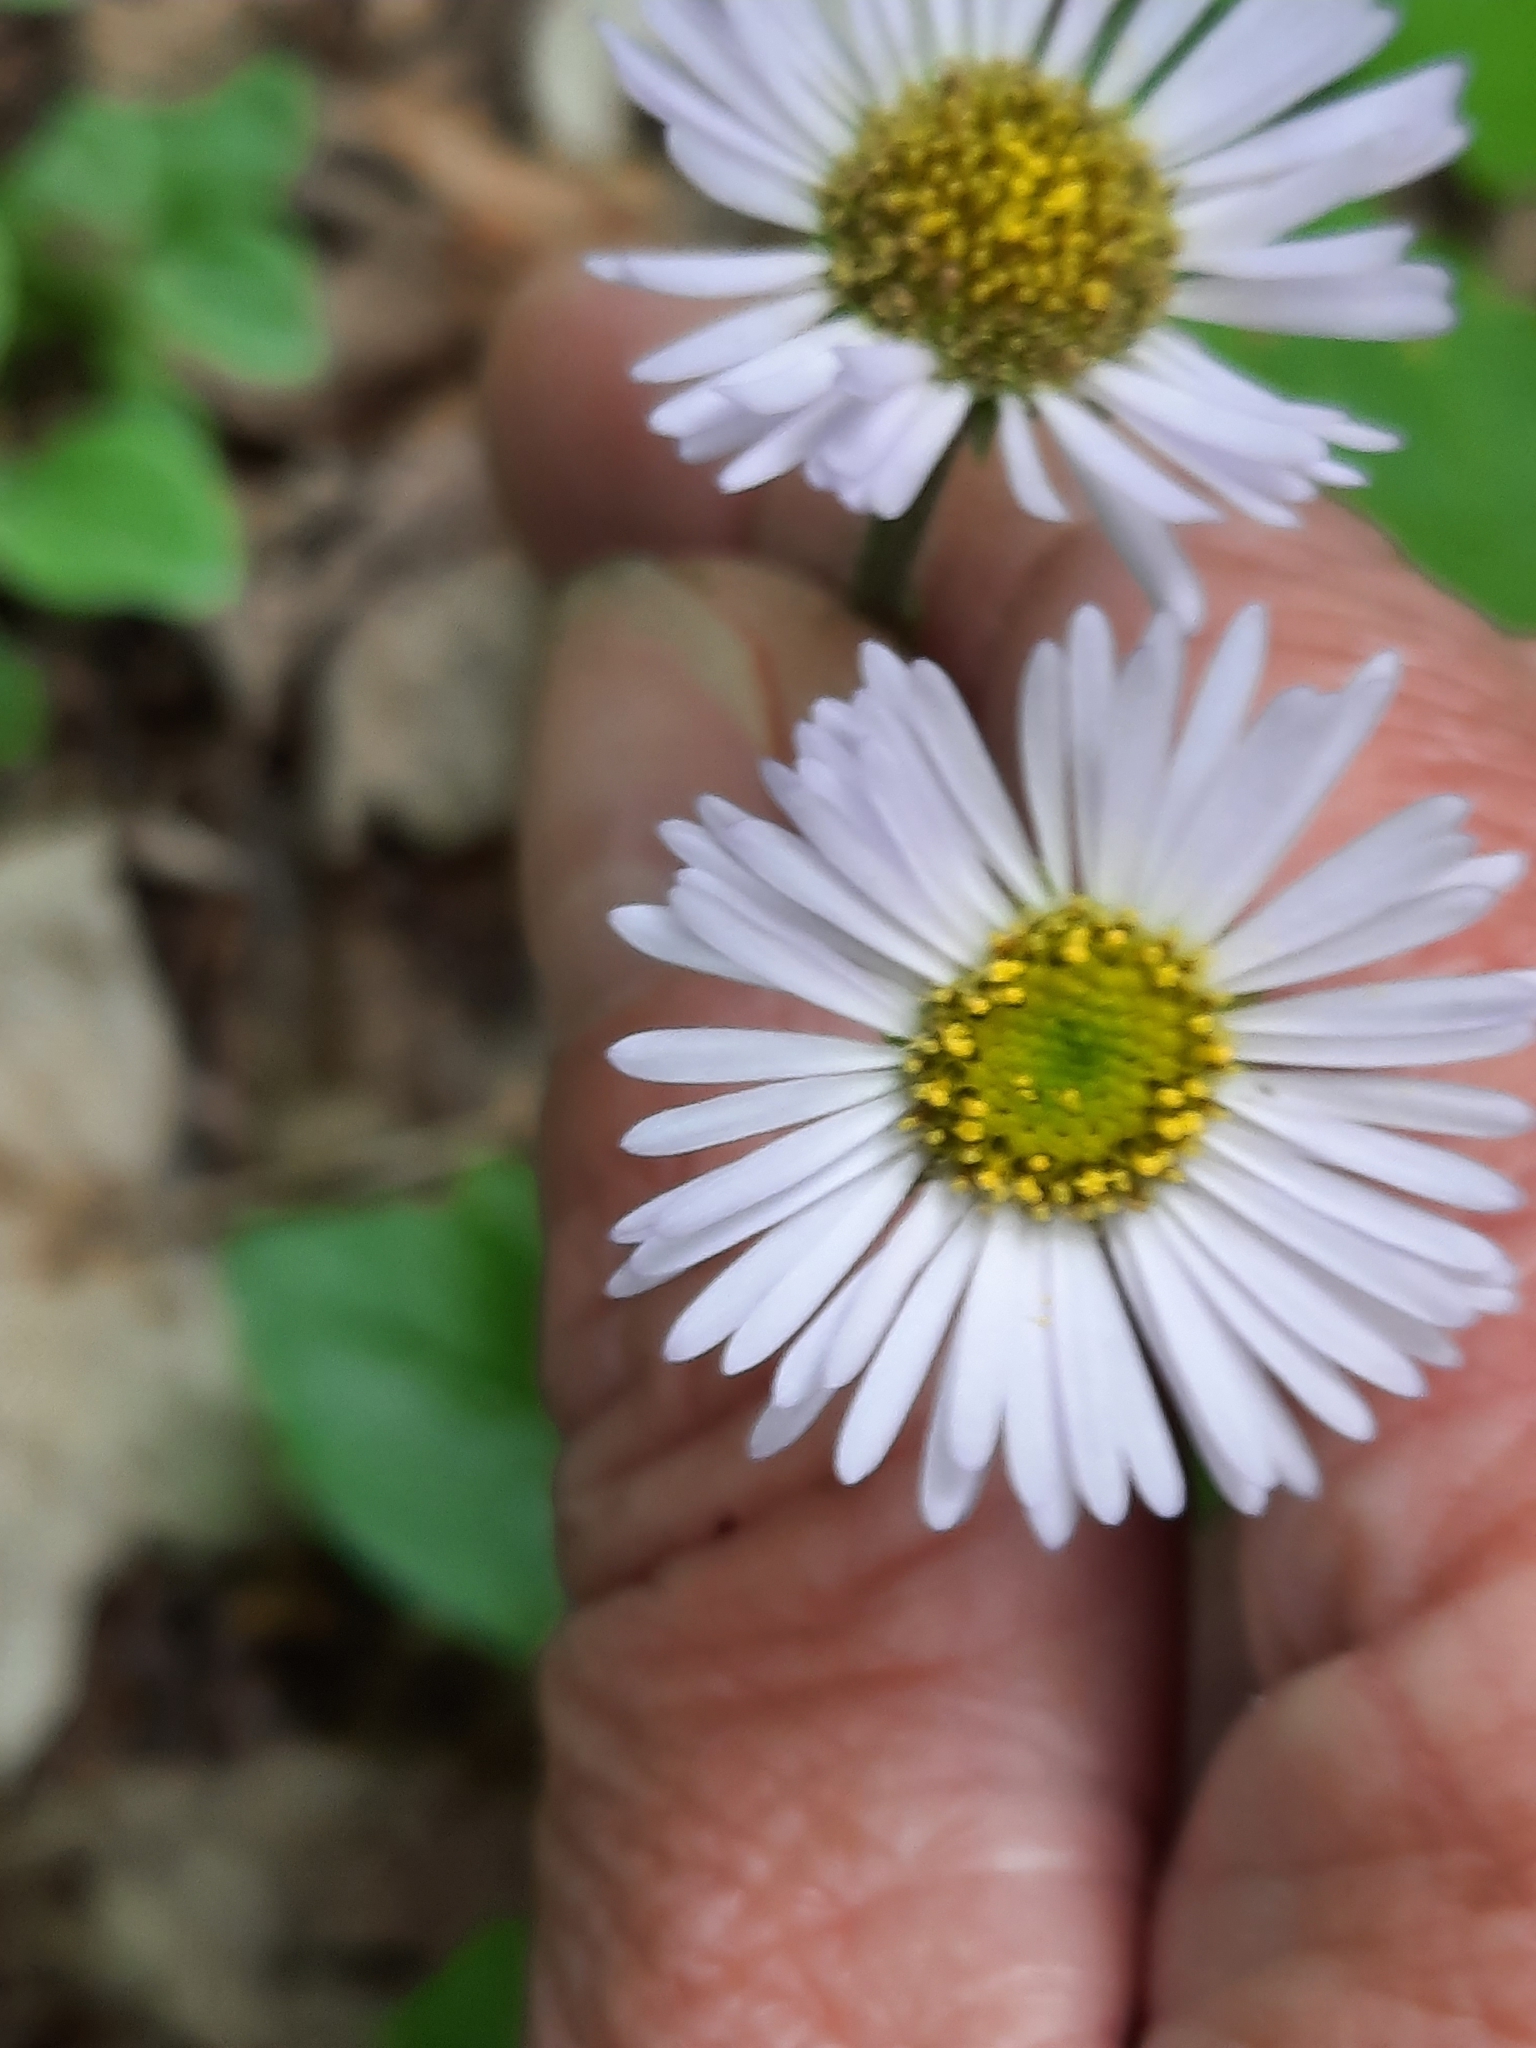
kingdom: Plantae
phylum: Tracheophyta
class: Magnoliopsida
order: Asterales
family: Asteraceae
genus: Erigeron
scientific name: Erigeron pulchellus
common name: Hairy fleabane
